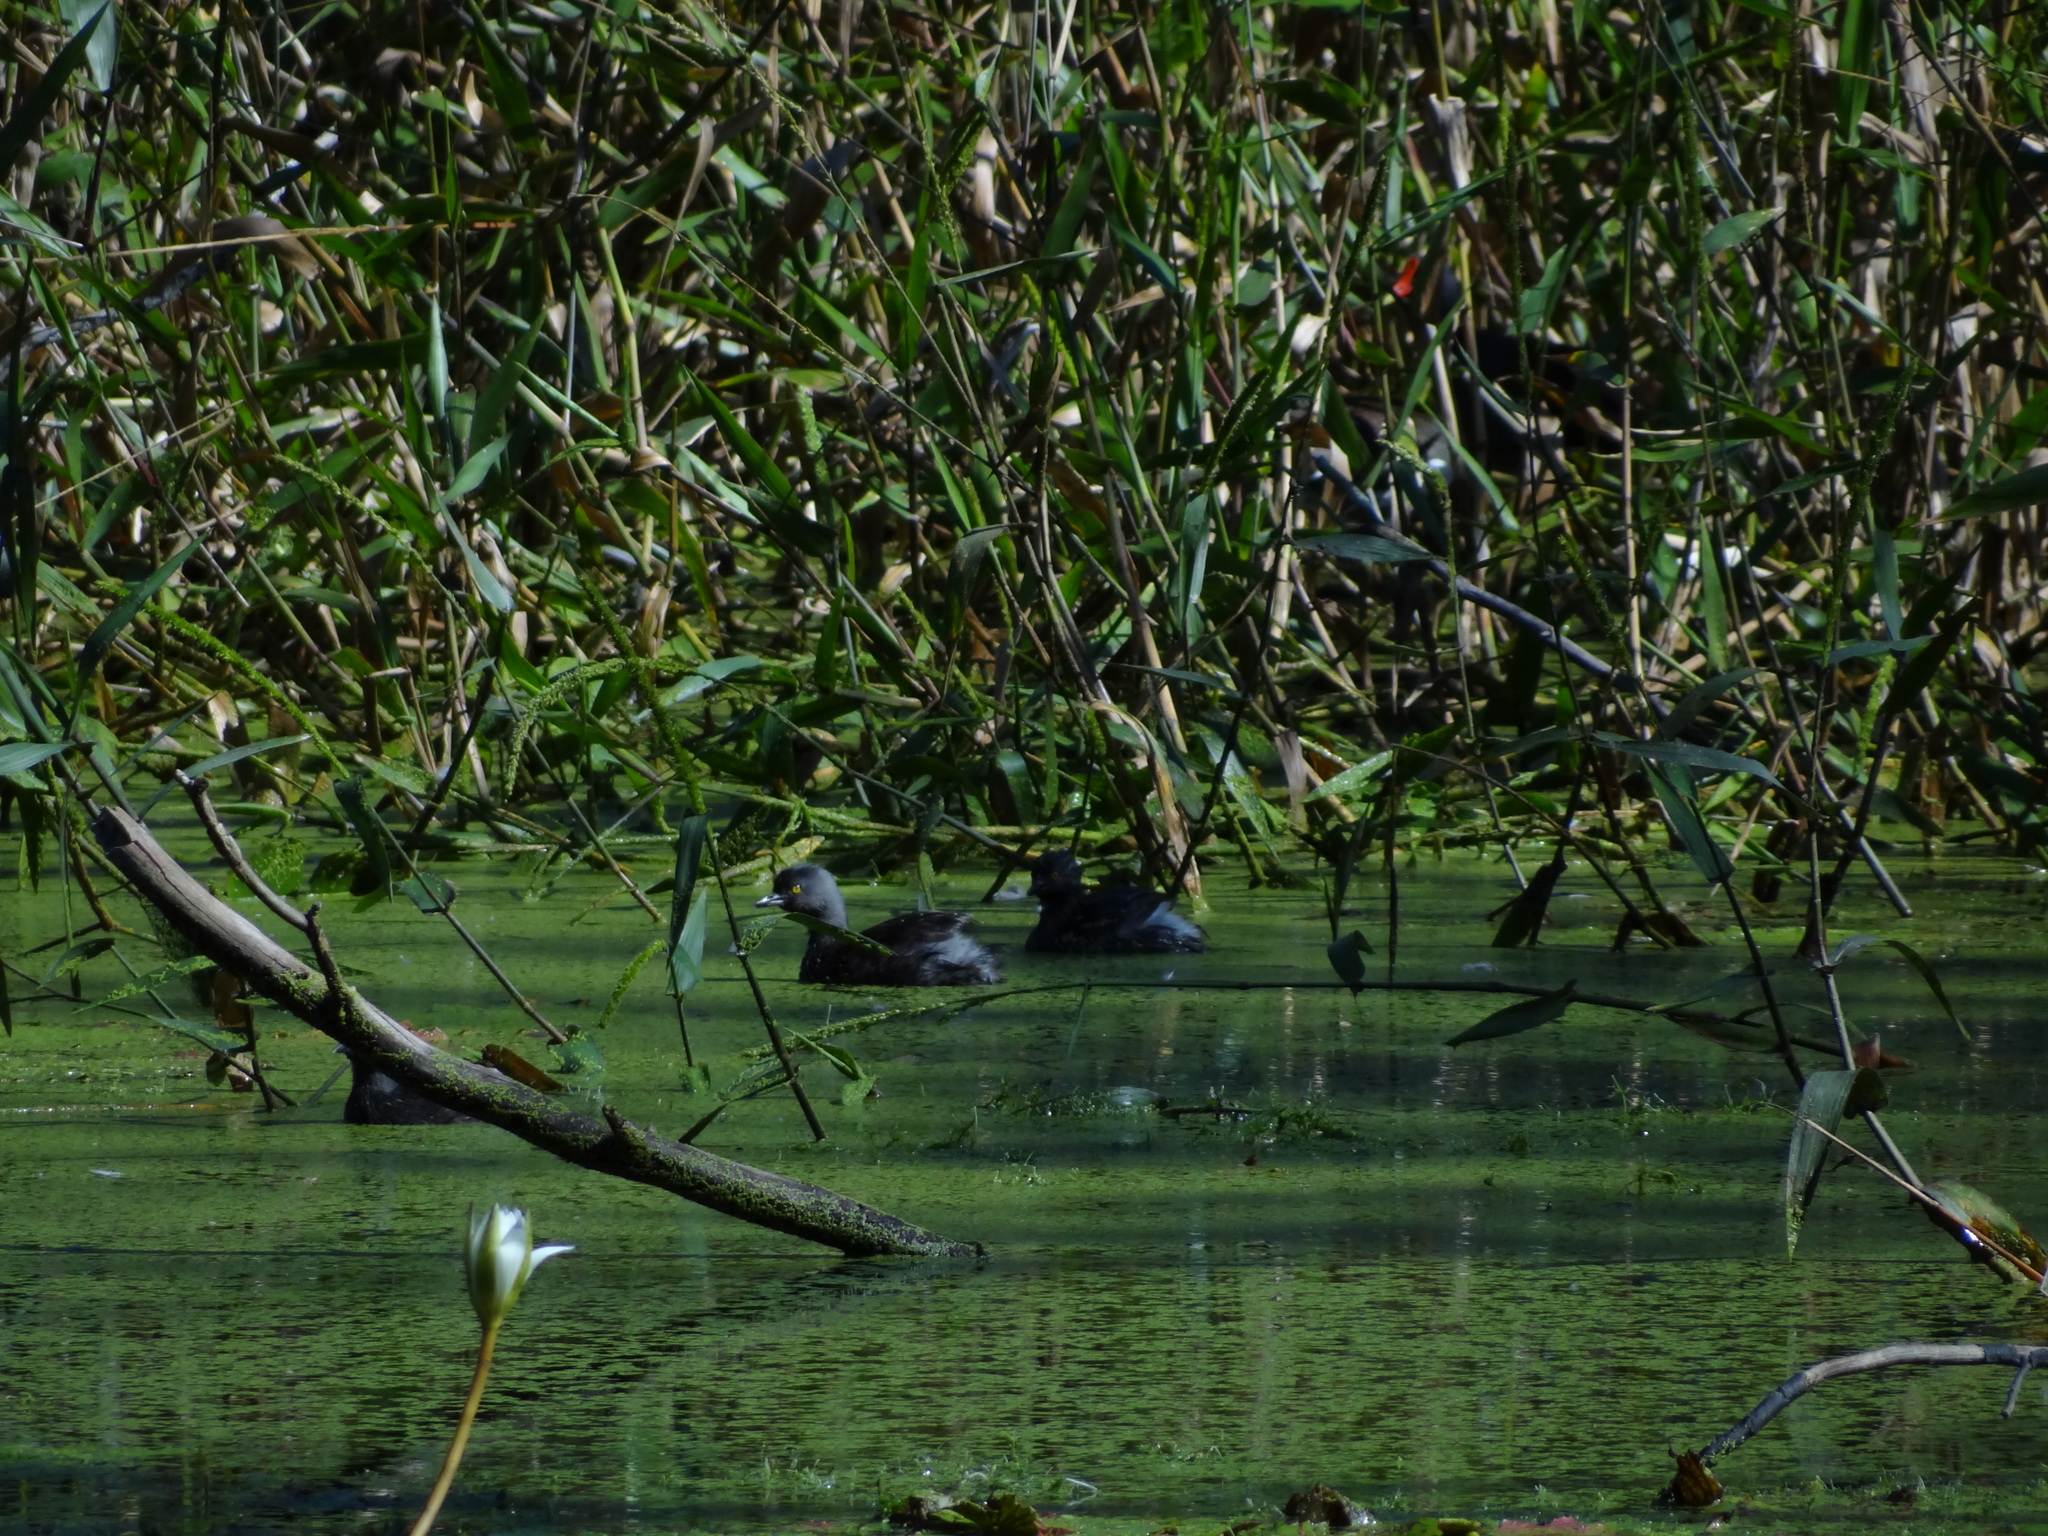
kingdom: Animalia
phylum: Chordata
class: Aves
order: Podicipediformes
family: Podicipedidae
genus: Tachybaptus
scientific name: Tachybaptus dominicus
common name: Least grebe
